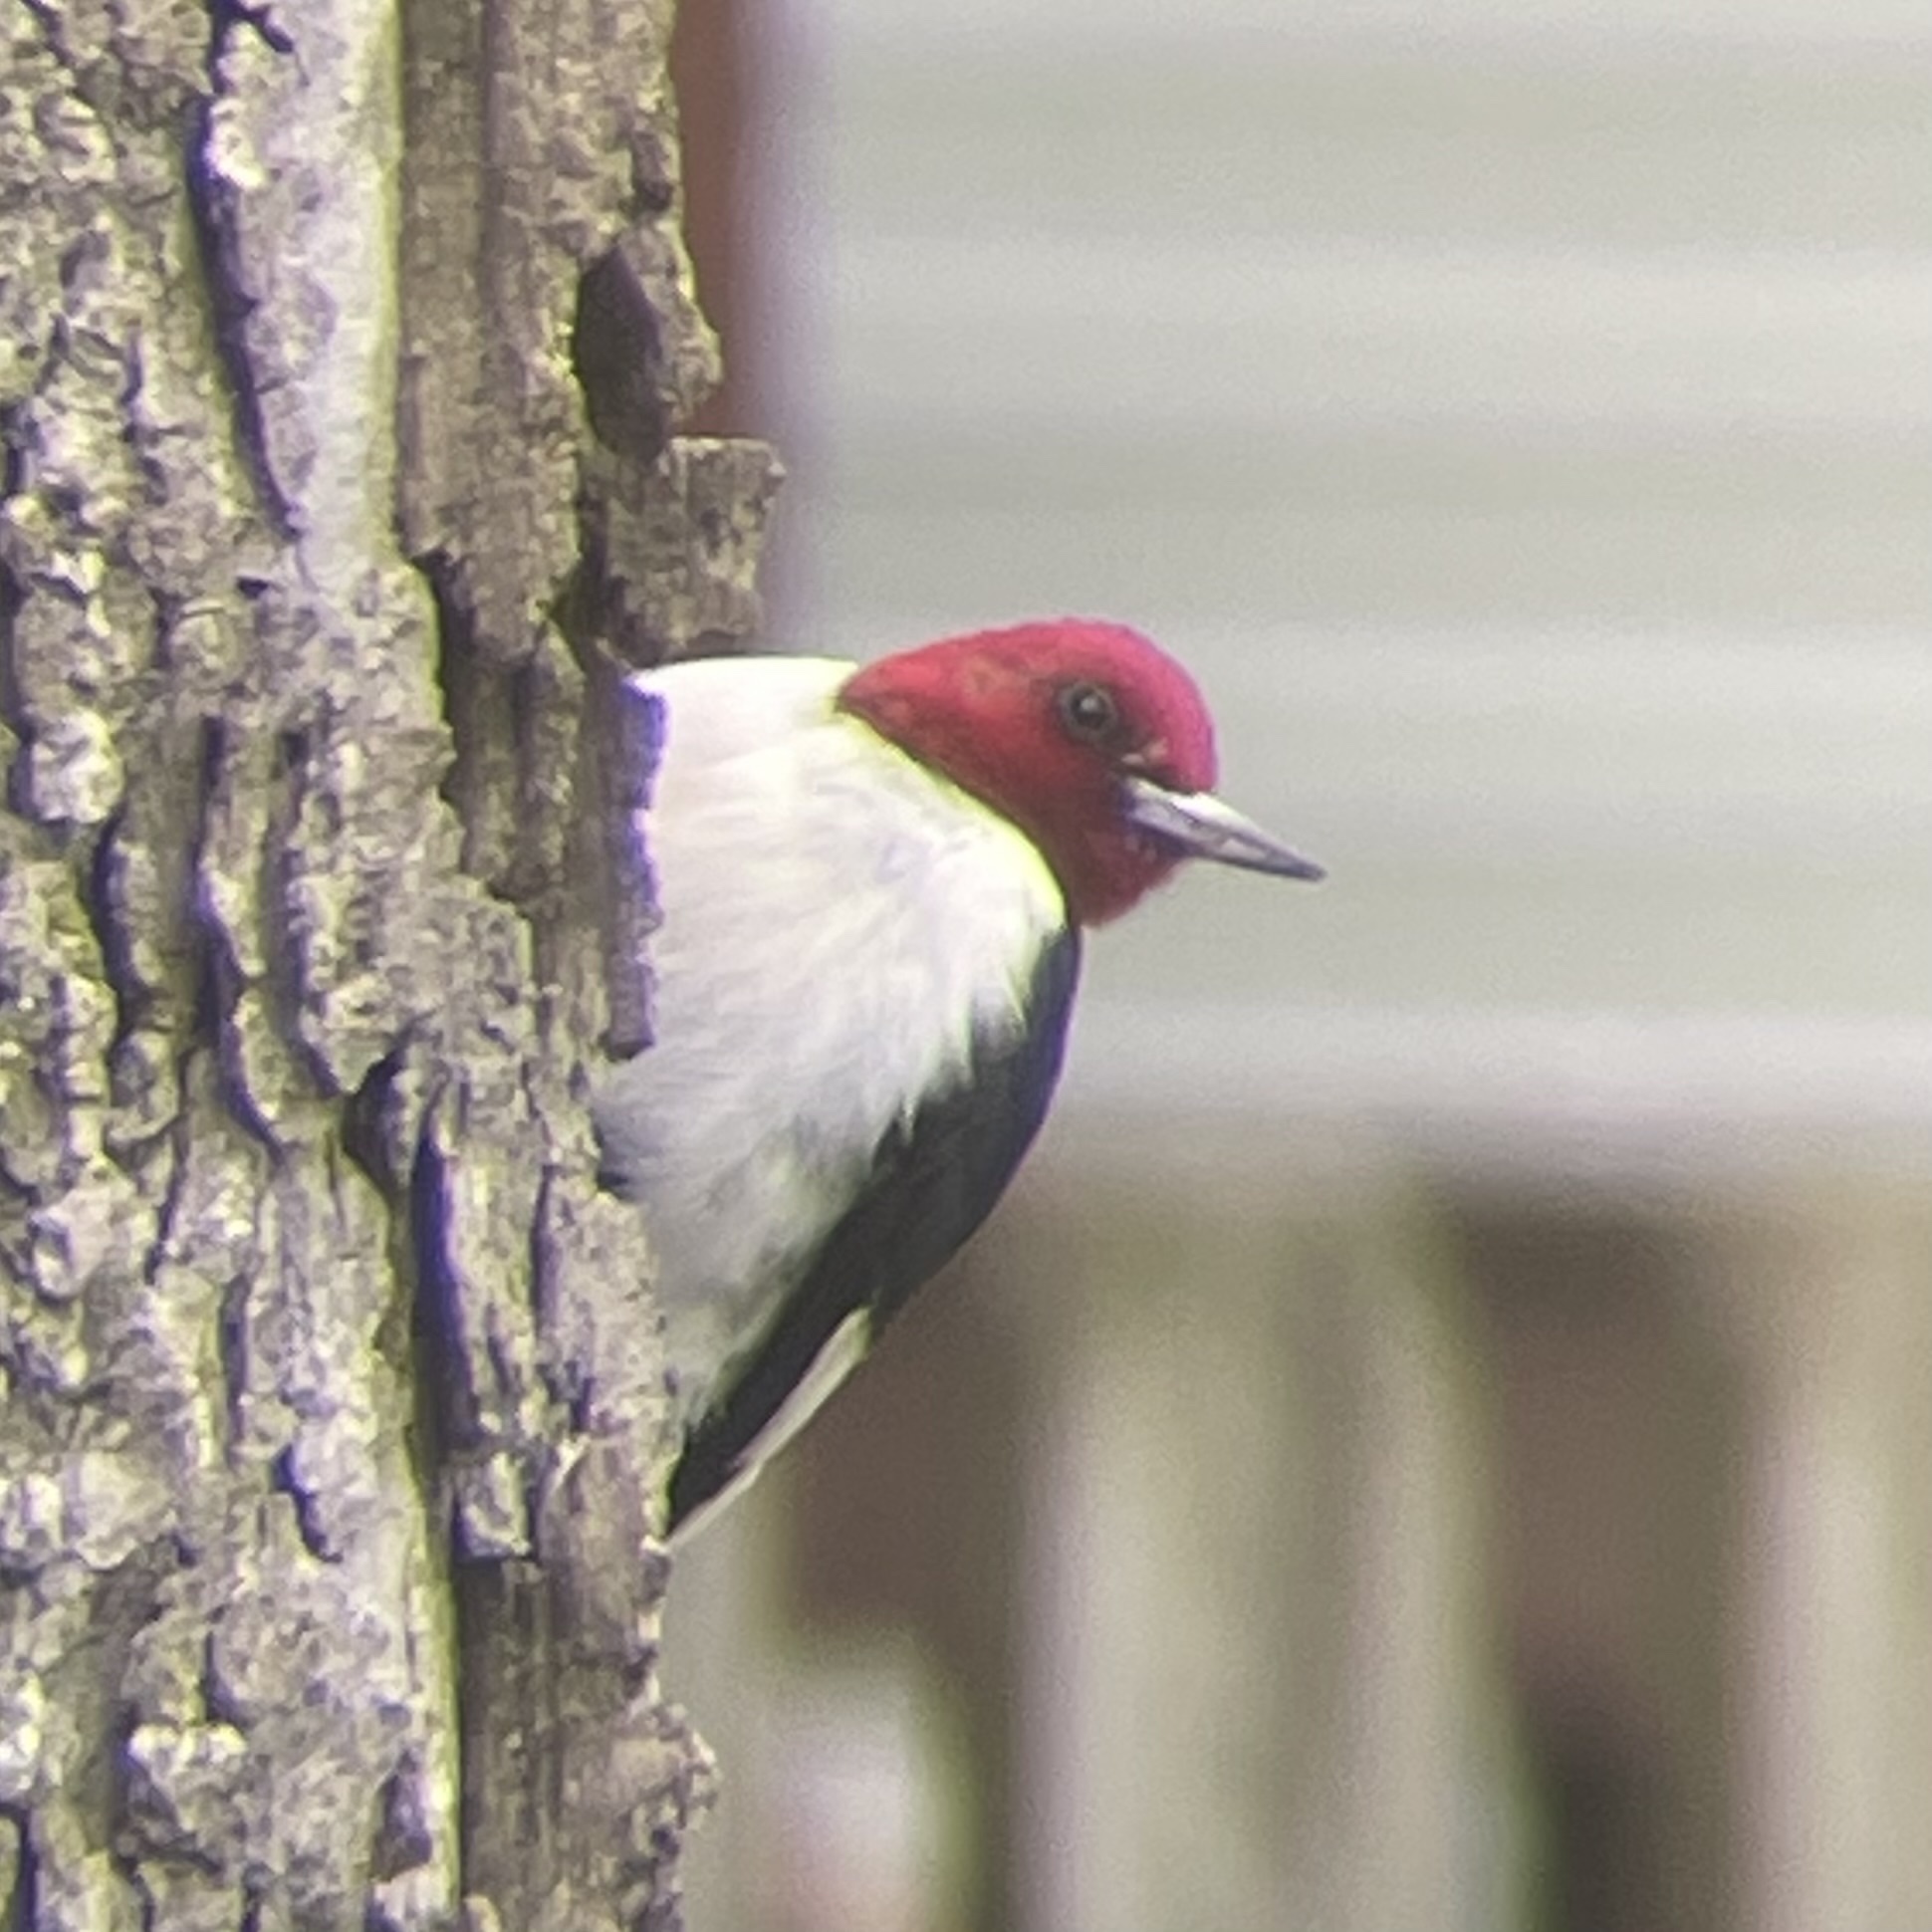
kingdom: Animalia
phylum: Chordata
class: Aves
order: Piciformes
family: Picidae
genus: Melanerpes
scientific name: Melanerpes erythrocephalus
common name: Red-headed woodpecker
